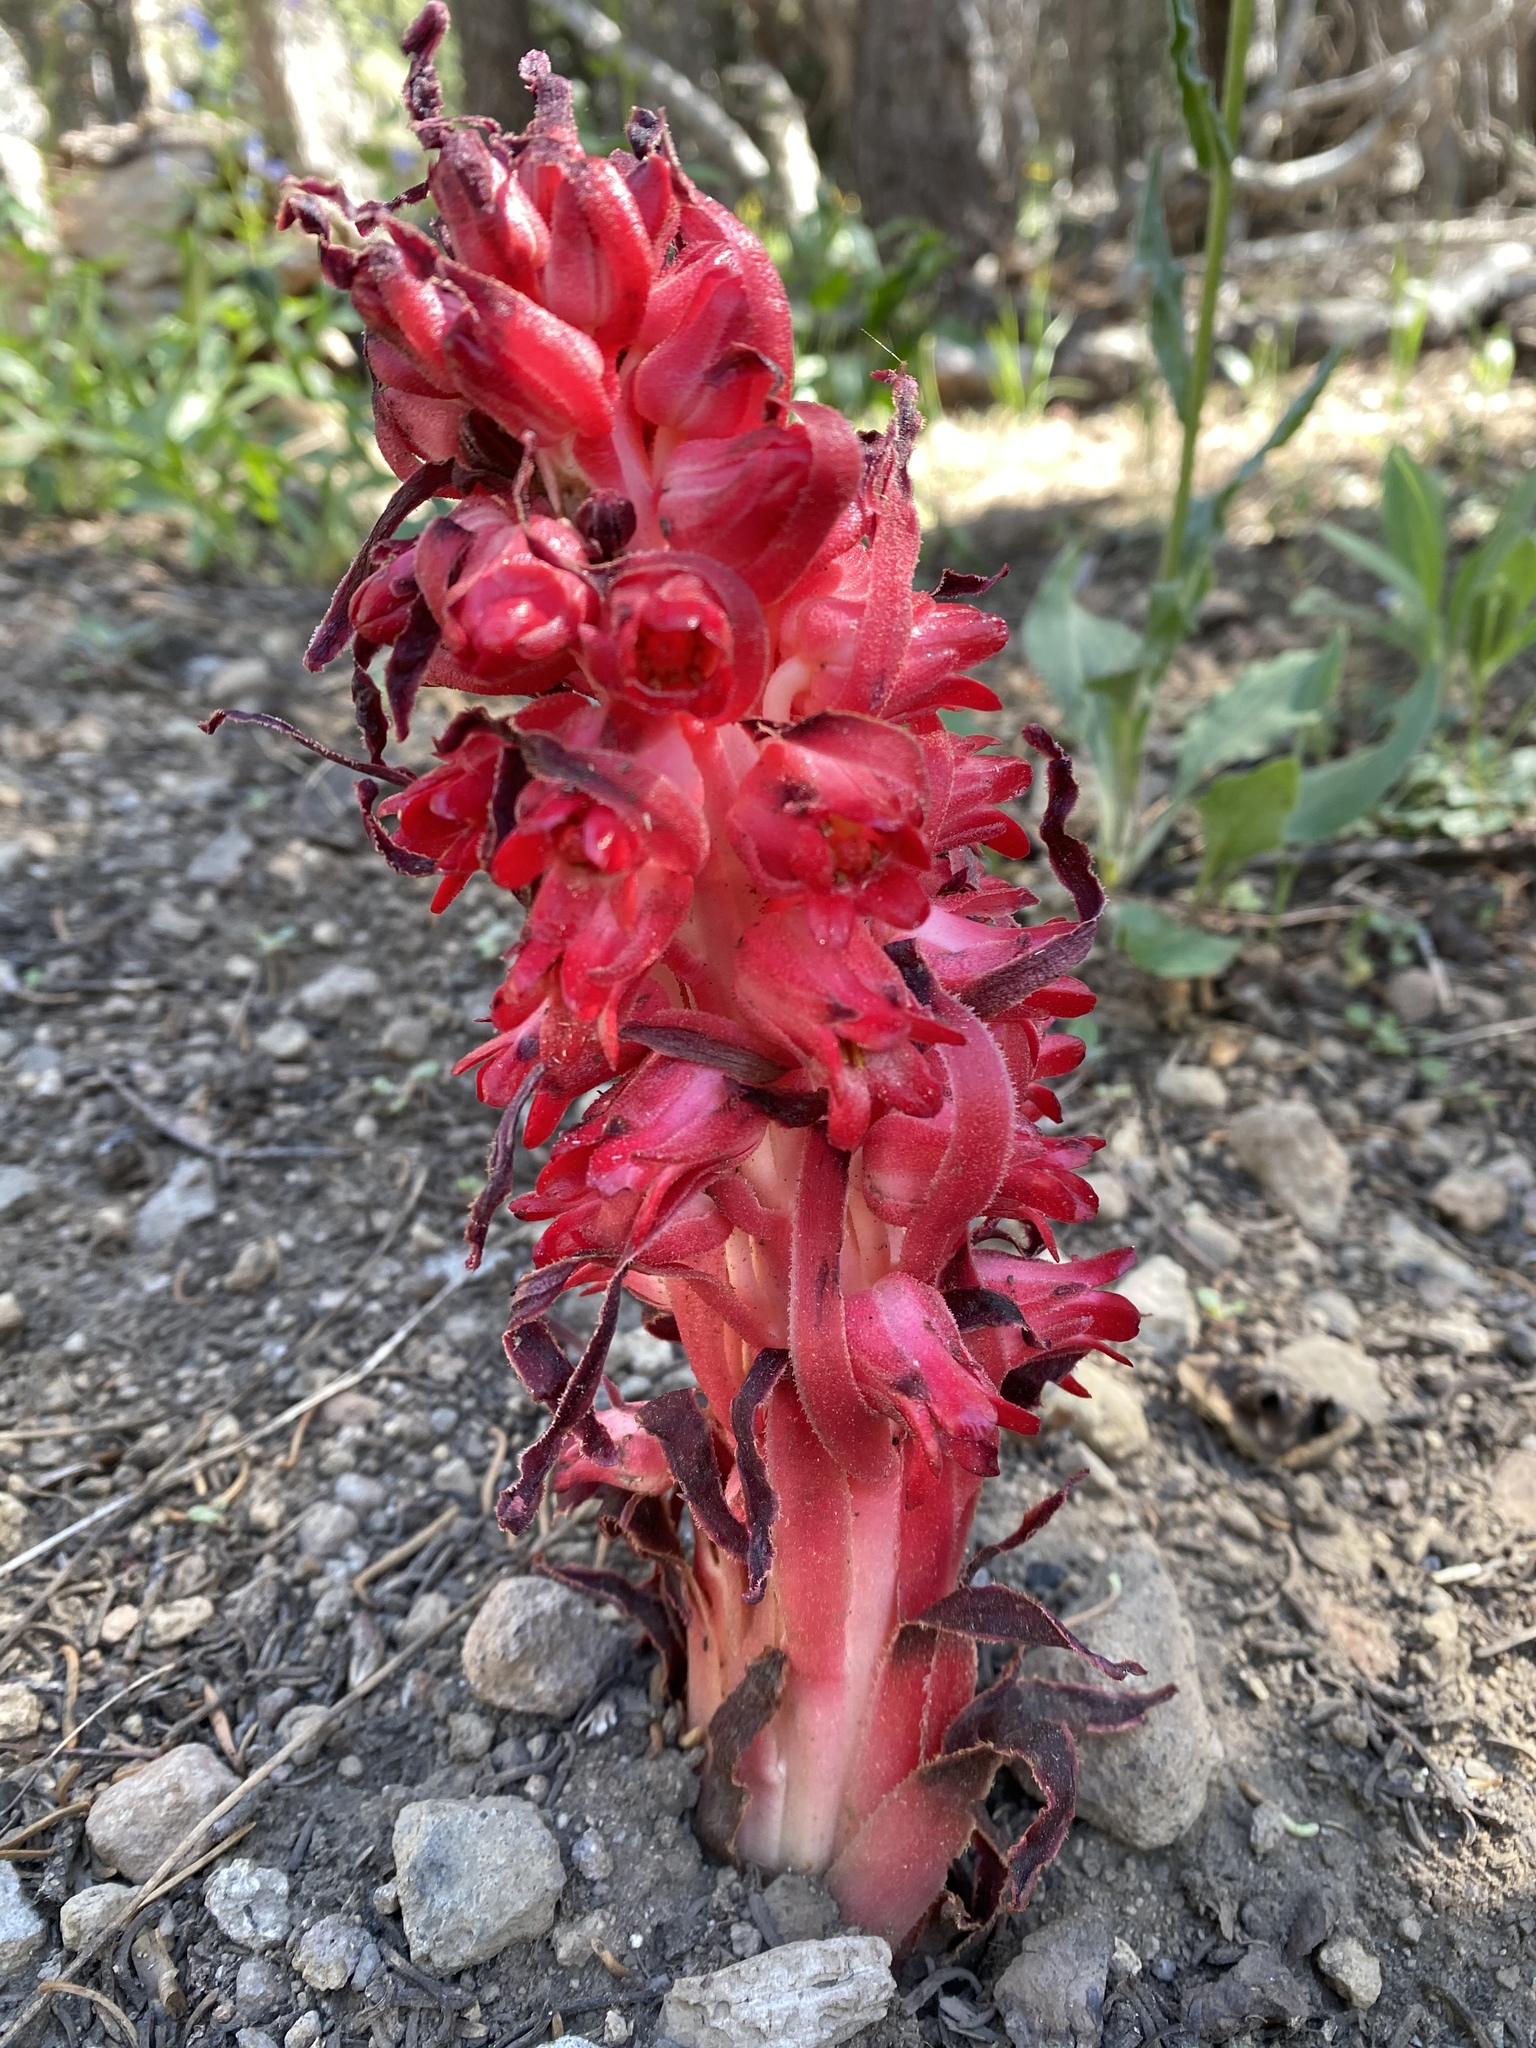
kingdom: Plantae
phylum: Tracheophyta
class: Magnoliopsida
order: Ericales
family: Ericaceae
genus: Sarcodes
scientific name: Sarcodes sanguinea
